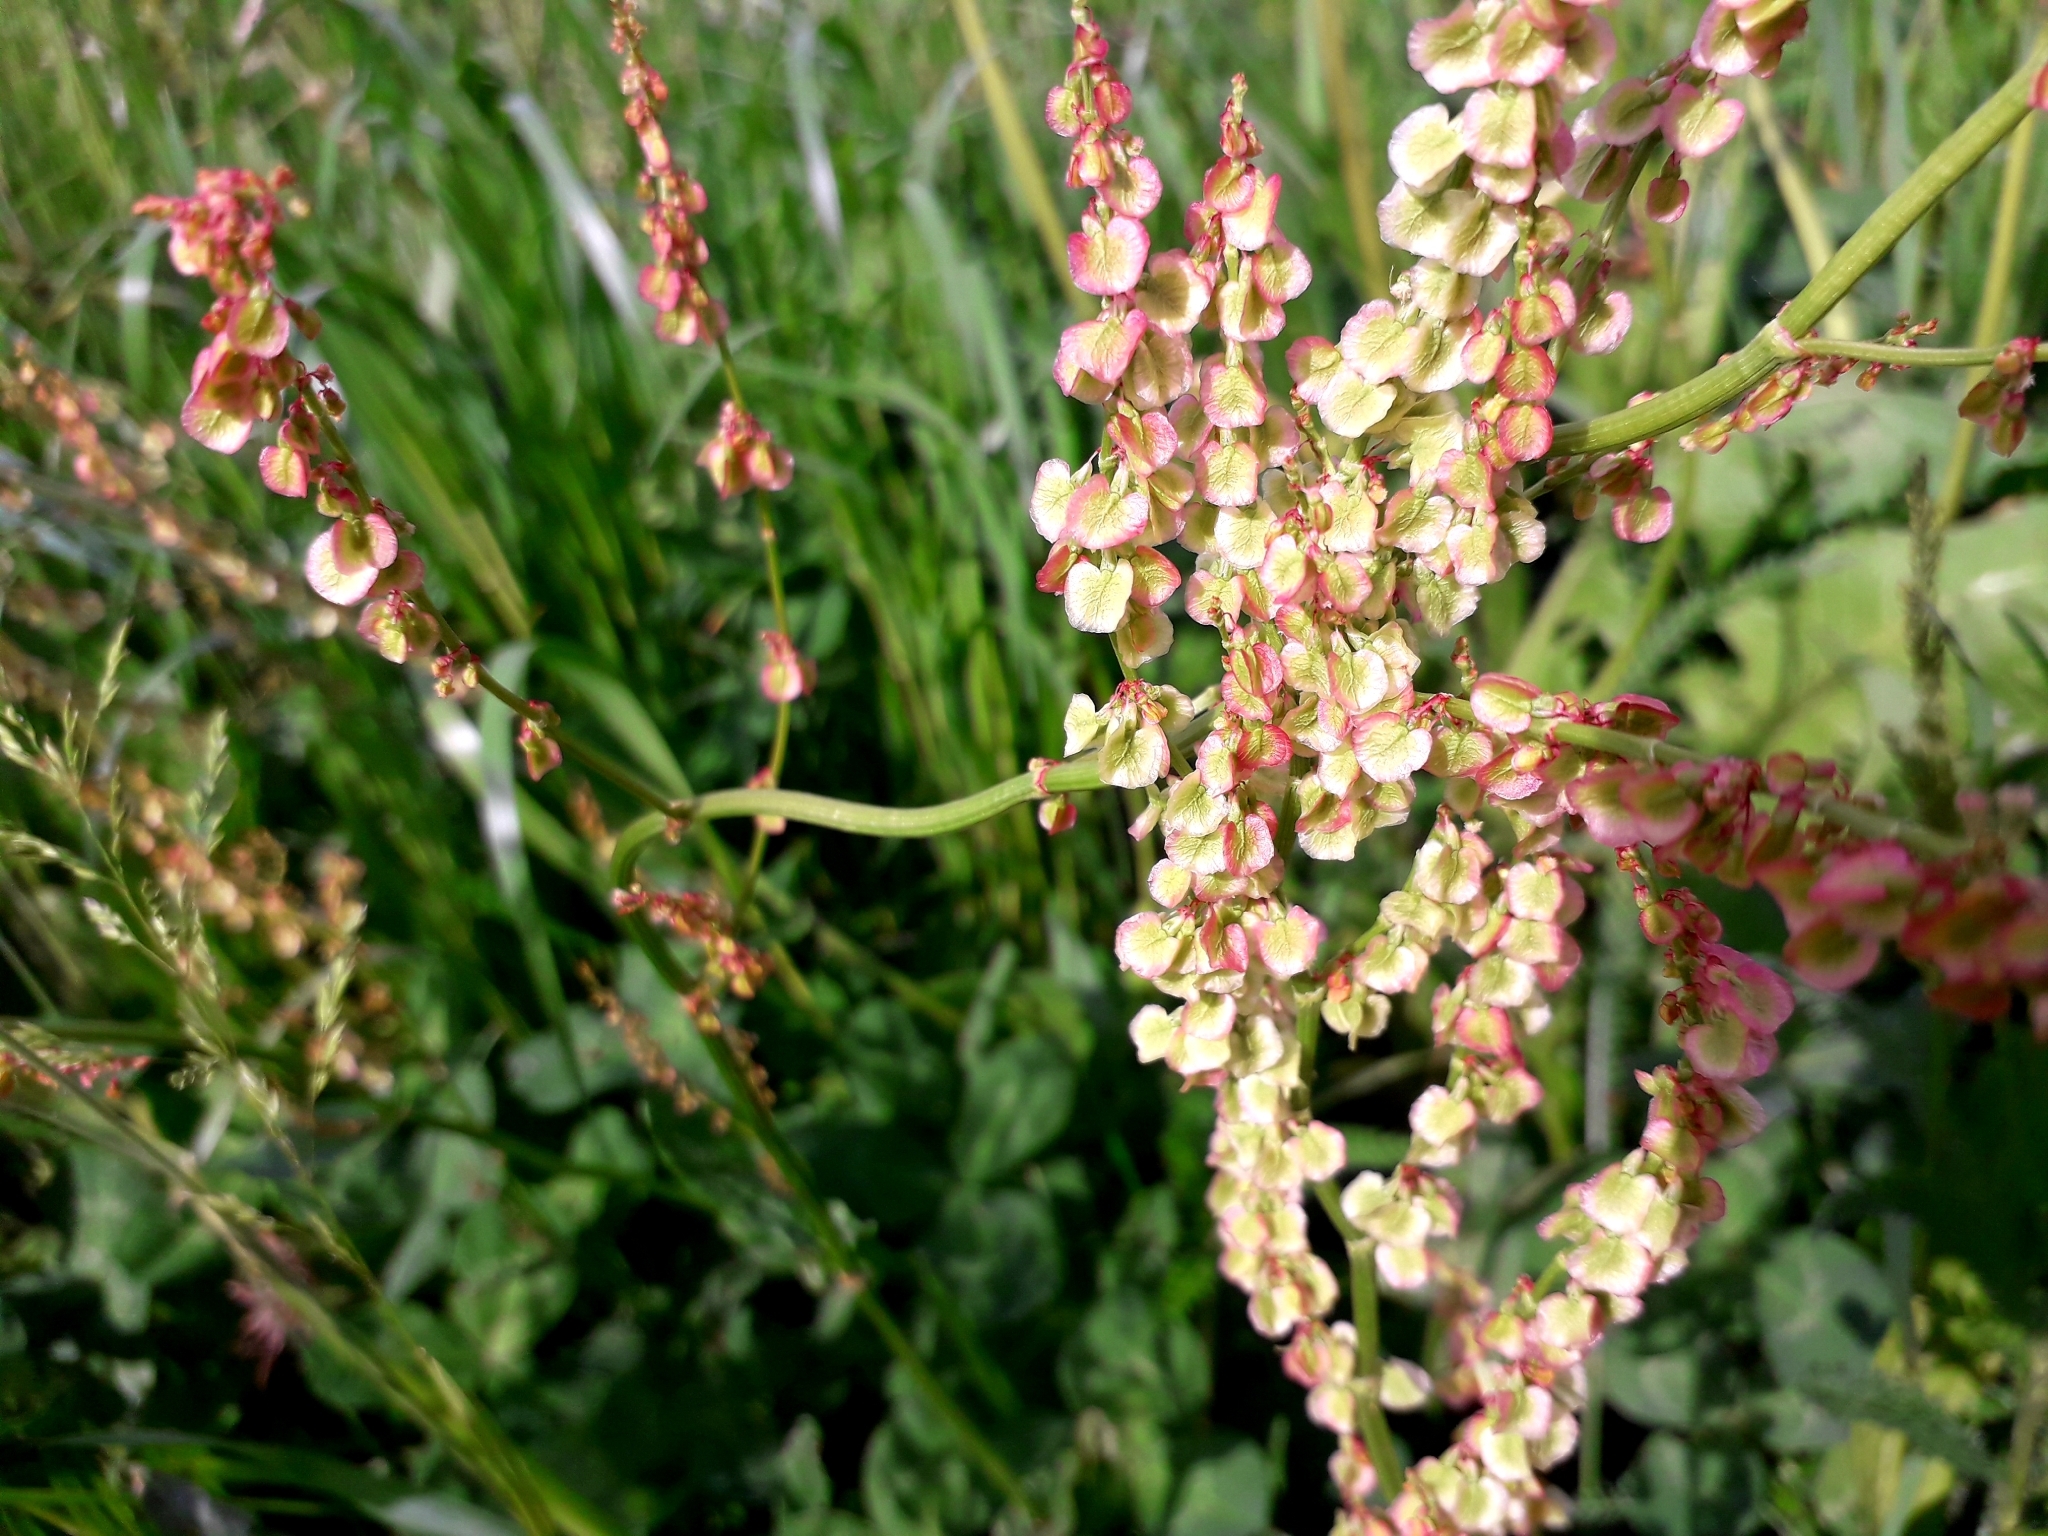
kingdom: Plantae
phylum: Tracheophyta
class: Magnoliopsida
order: Caryophyllales
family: Polygonaceae
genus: Rumex
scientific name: Rumex acetosa
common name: Garden sorrel
